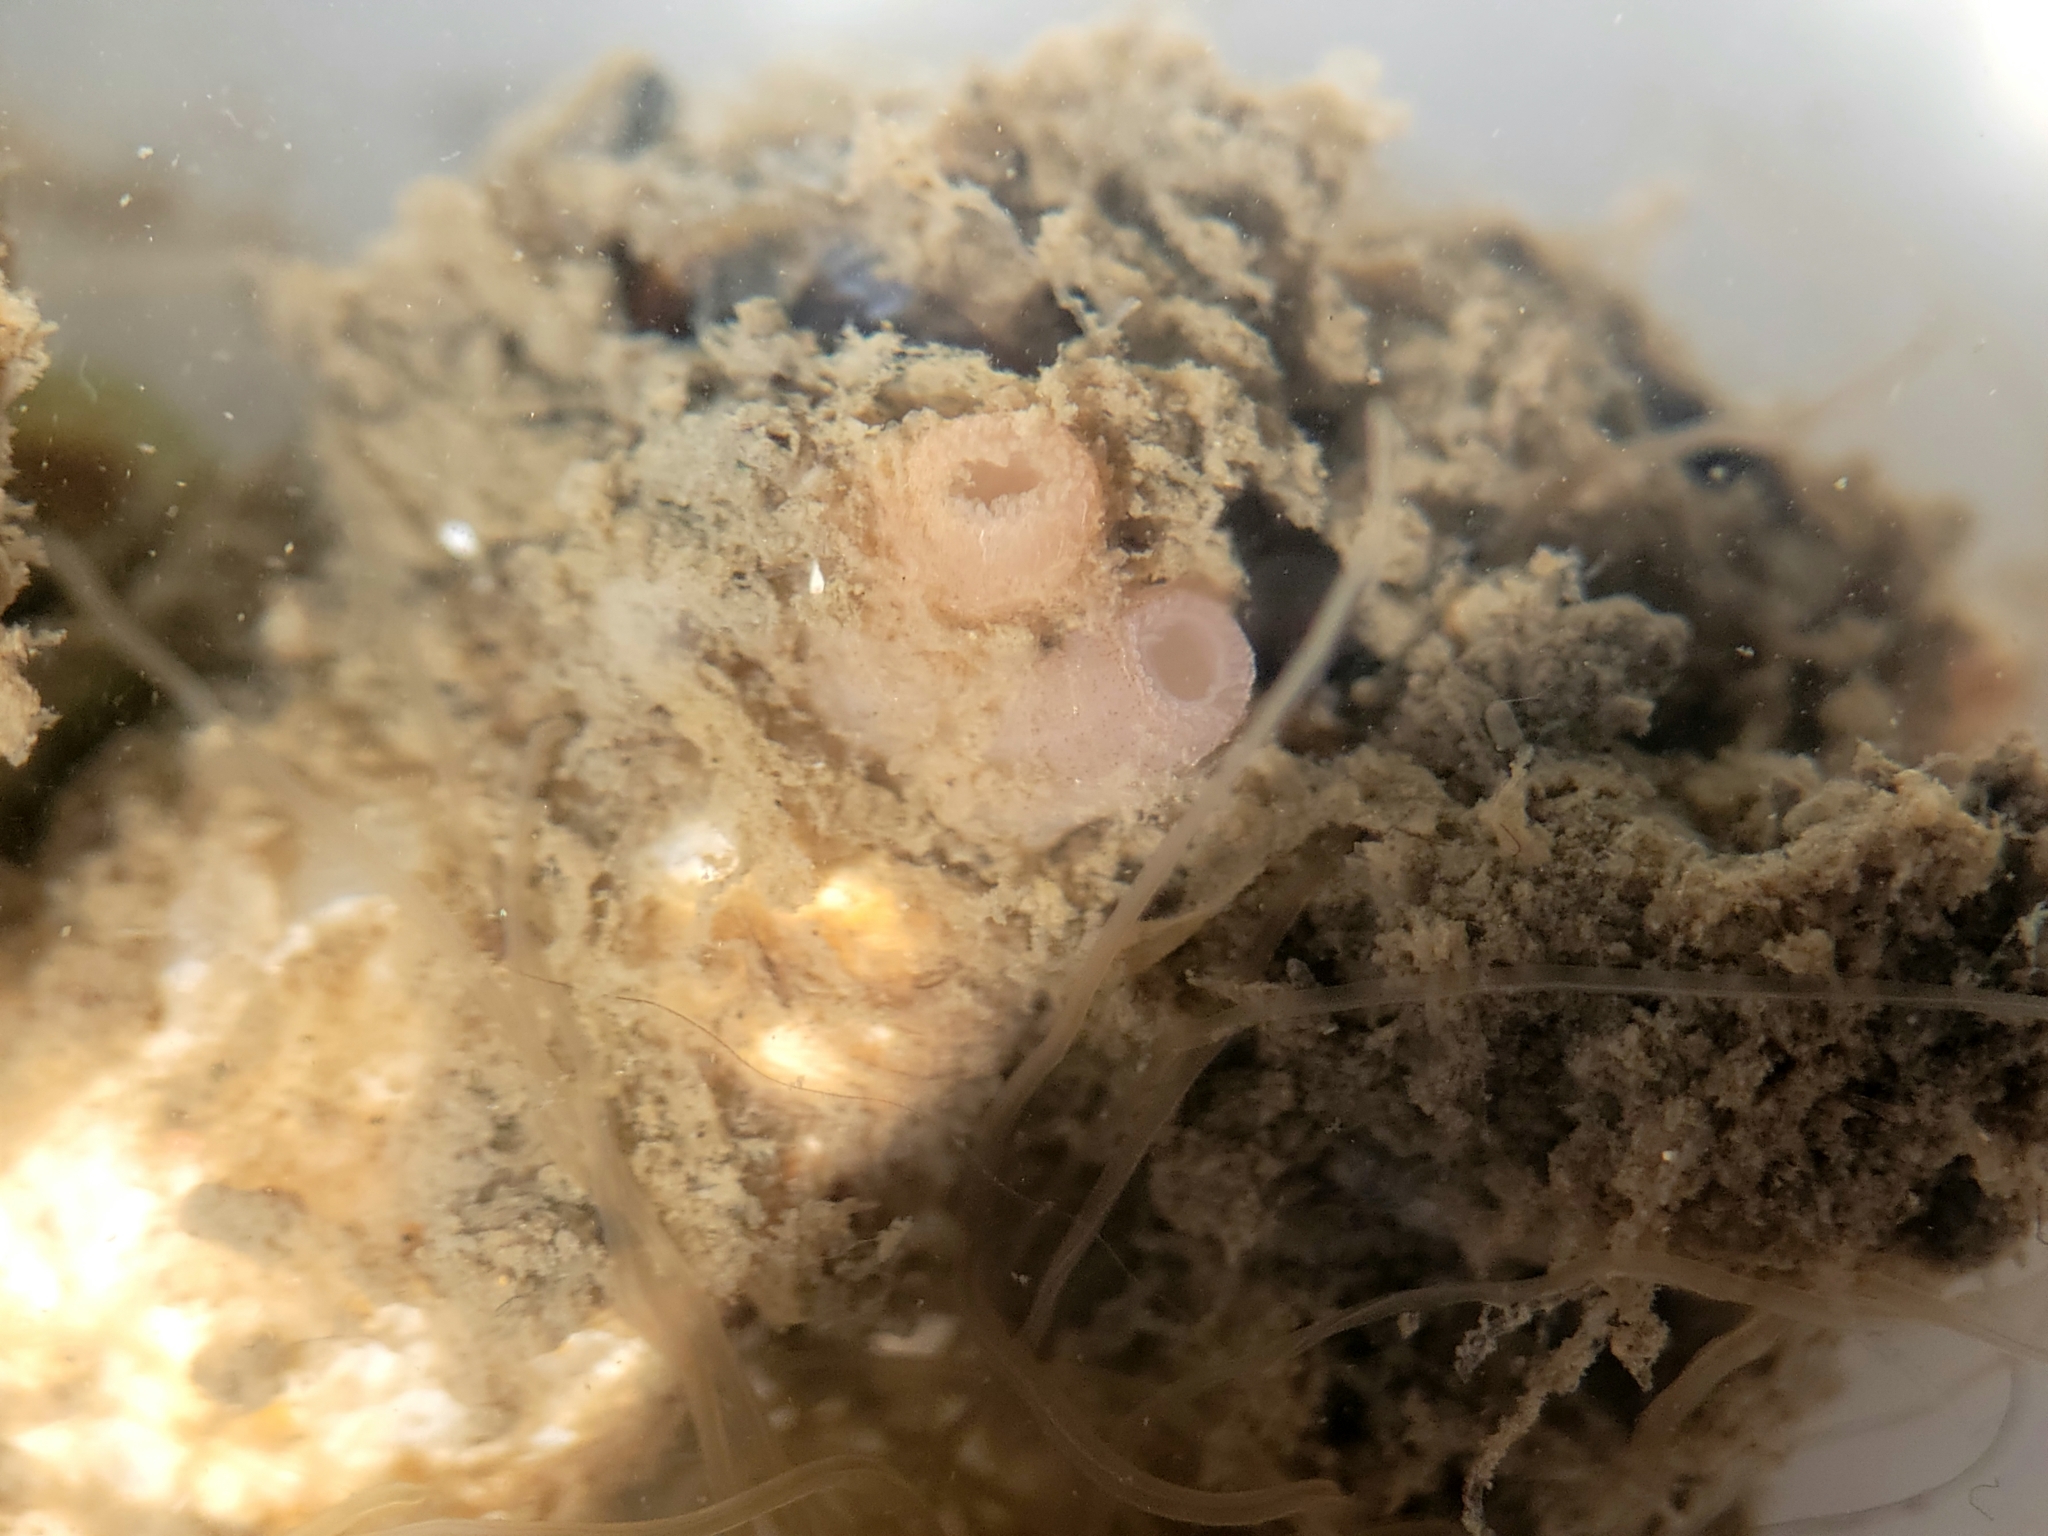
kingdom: Animalia
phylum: Mollusca
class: Bivalvia
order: Adapedonta
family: Hiatellidae
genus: Hiatella
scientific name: Hiatella arctica
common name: Arctic hiatella
